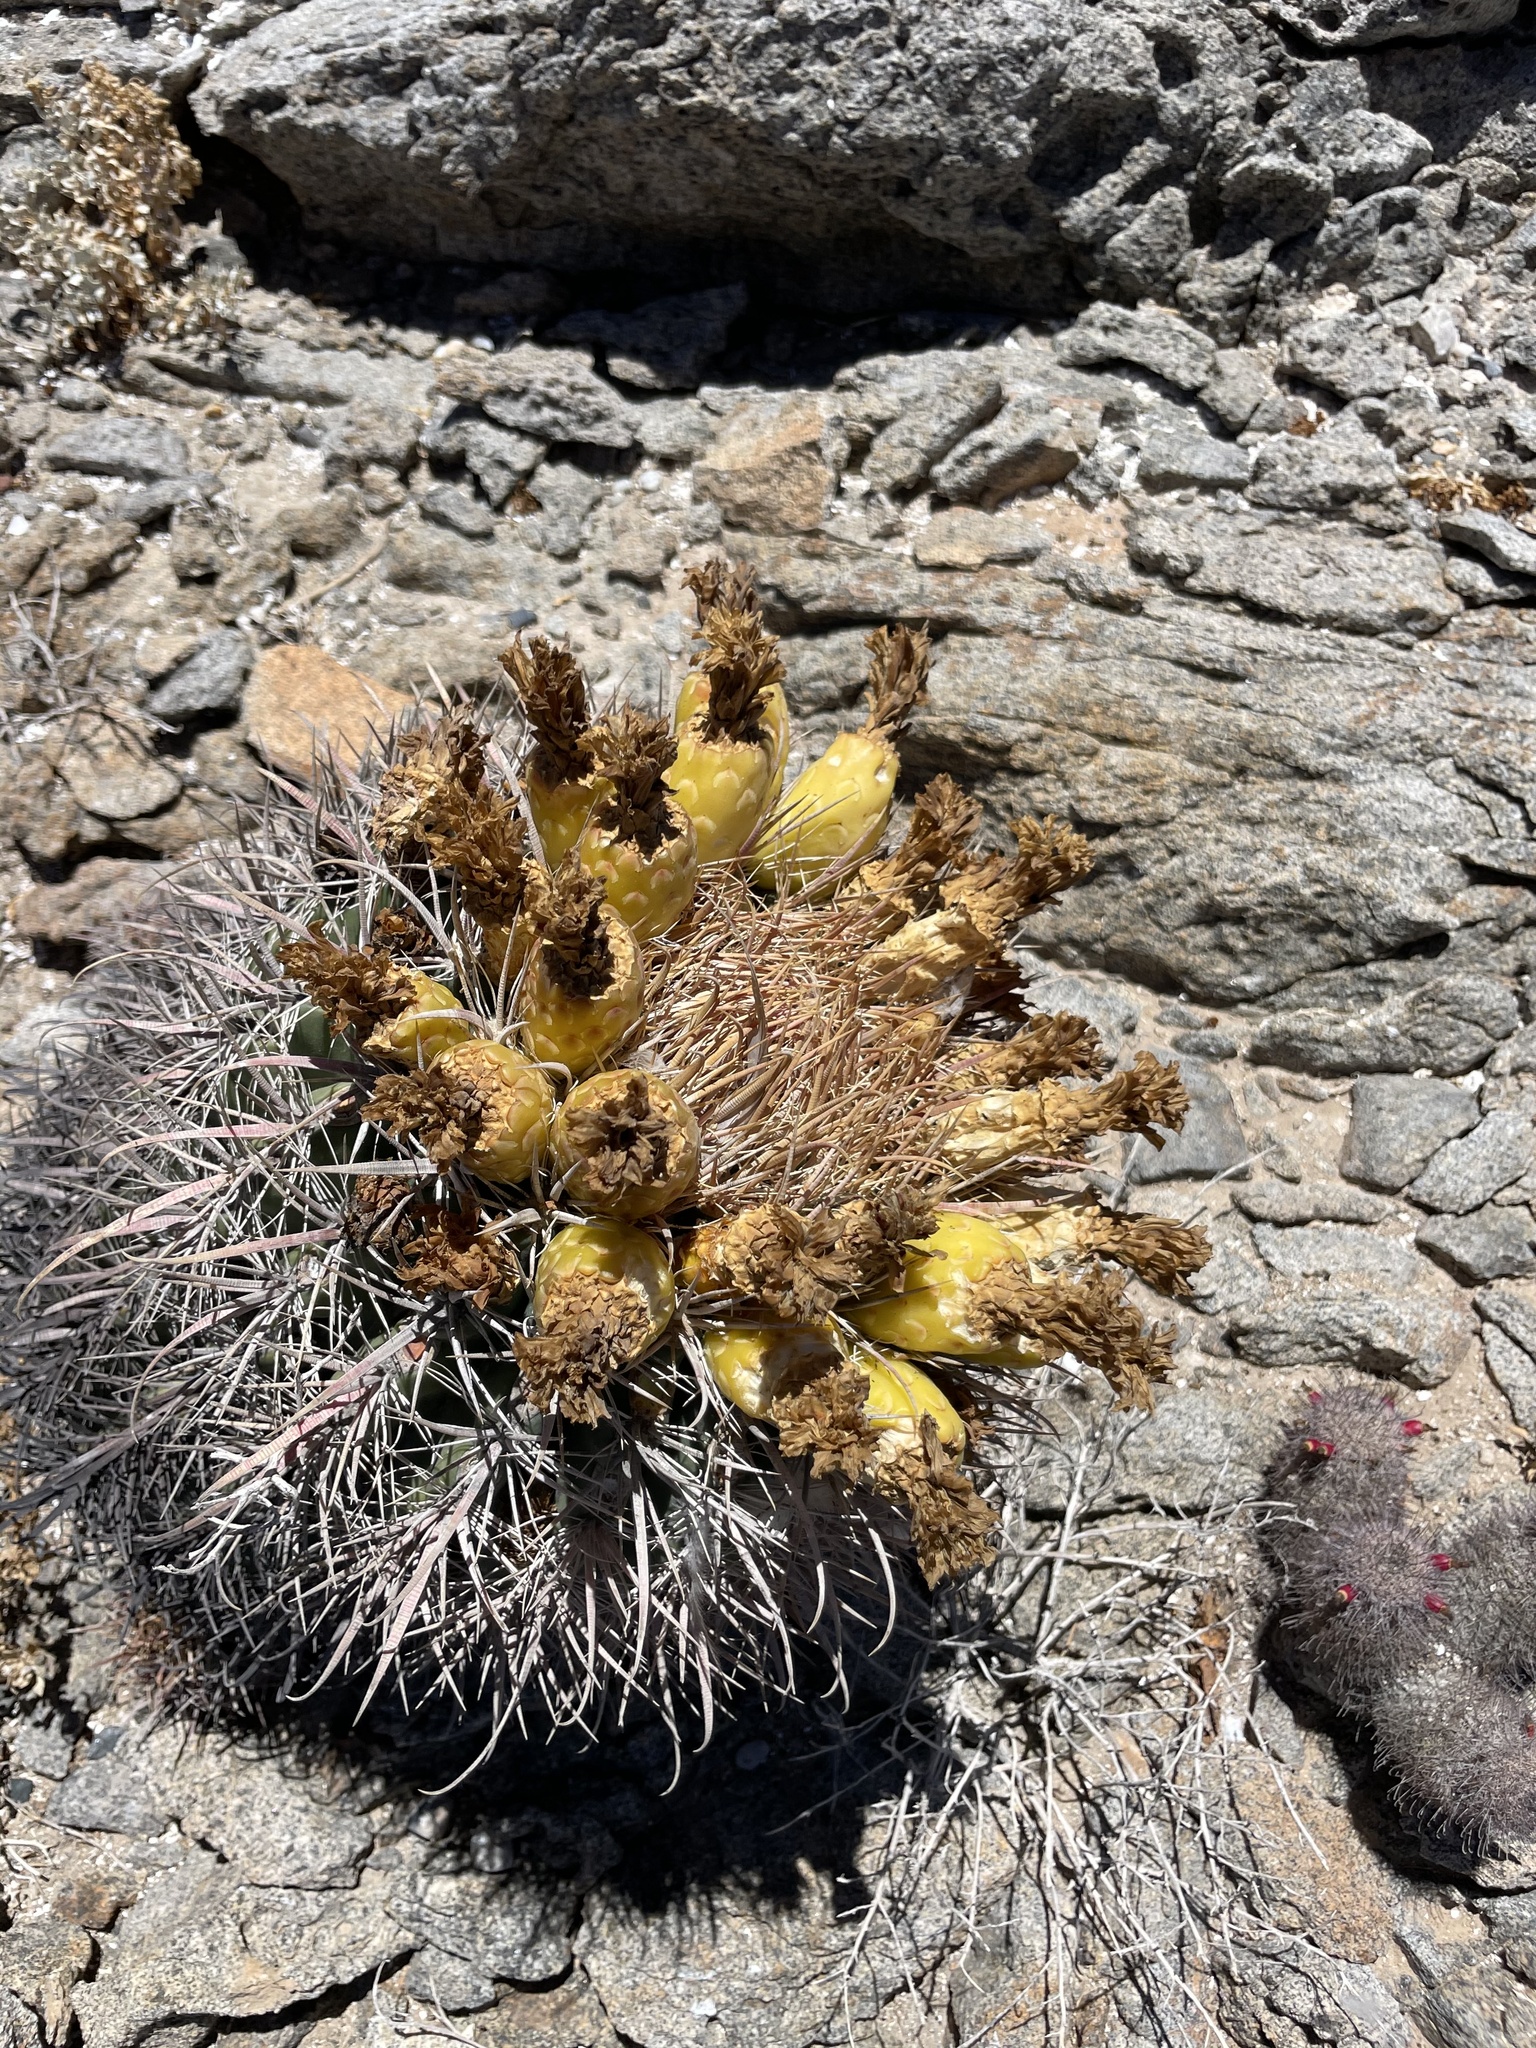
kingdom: Plantae
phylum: Tracheophyta
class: Magnoliopsida
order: Caryophyllales
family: Cactaceae
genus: Ferocactus
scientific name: Ferocactus gracilis
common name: Fire barrel cactus
